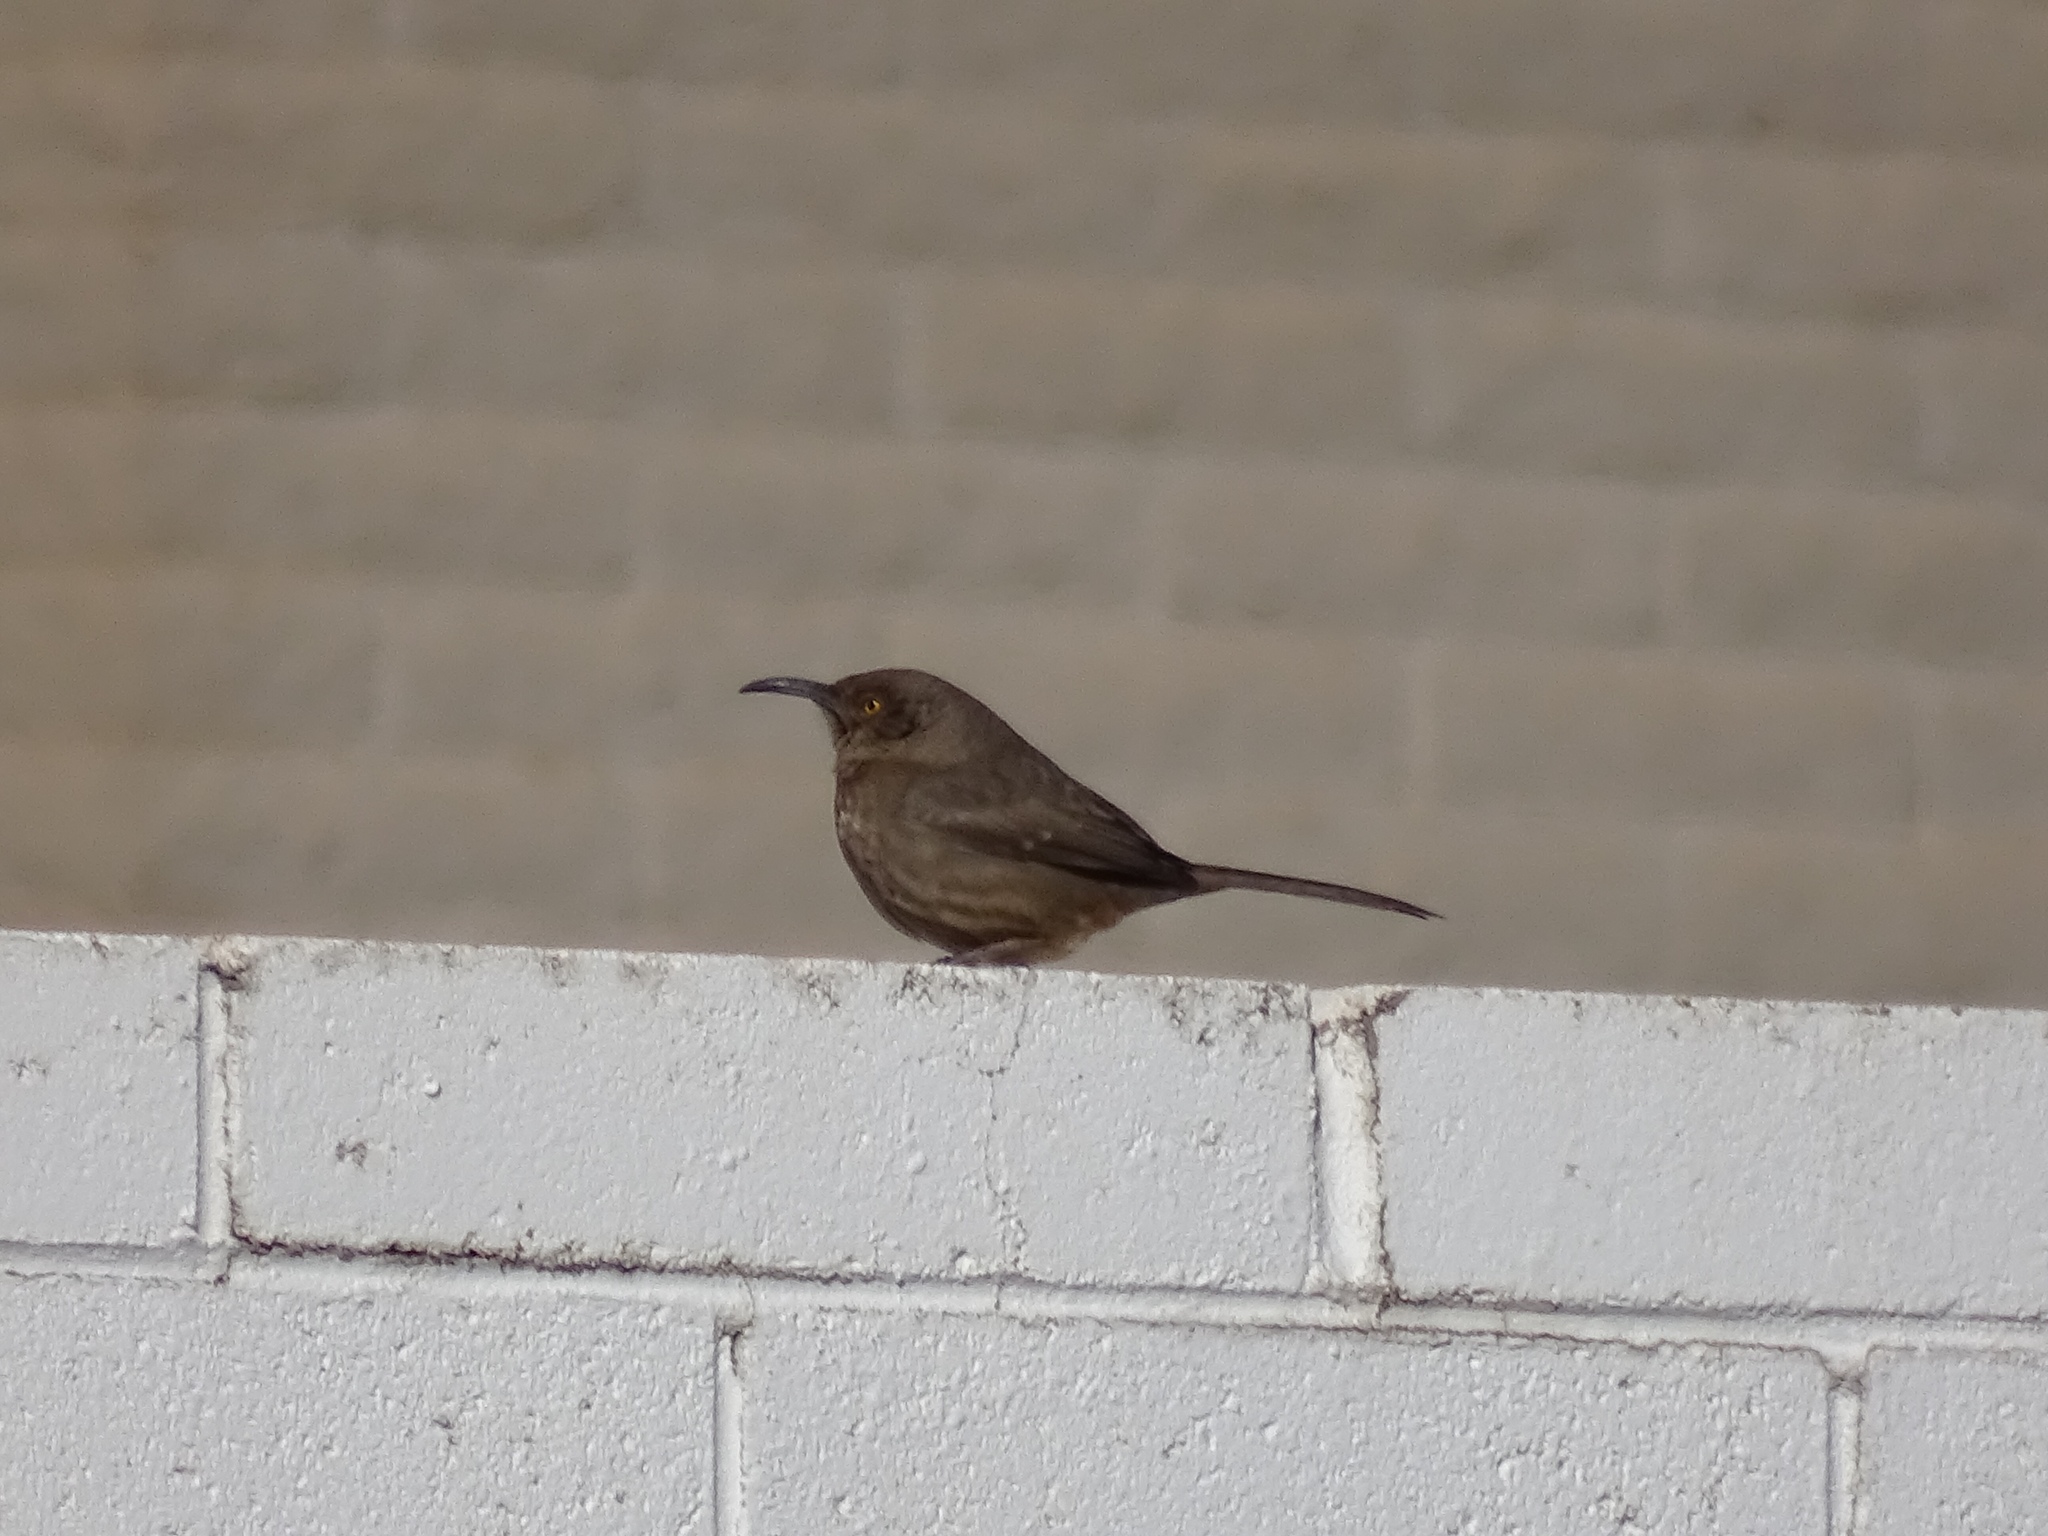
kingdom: Animalia
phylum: Chordata
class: Aves
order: Passeriformes
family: Mimidae
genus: Toxostoma
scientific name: Toxostoma curvirostre
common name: Curve-billed thrasher
